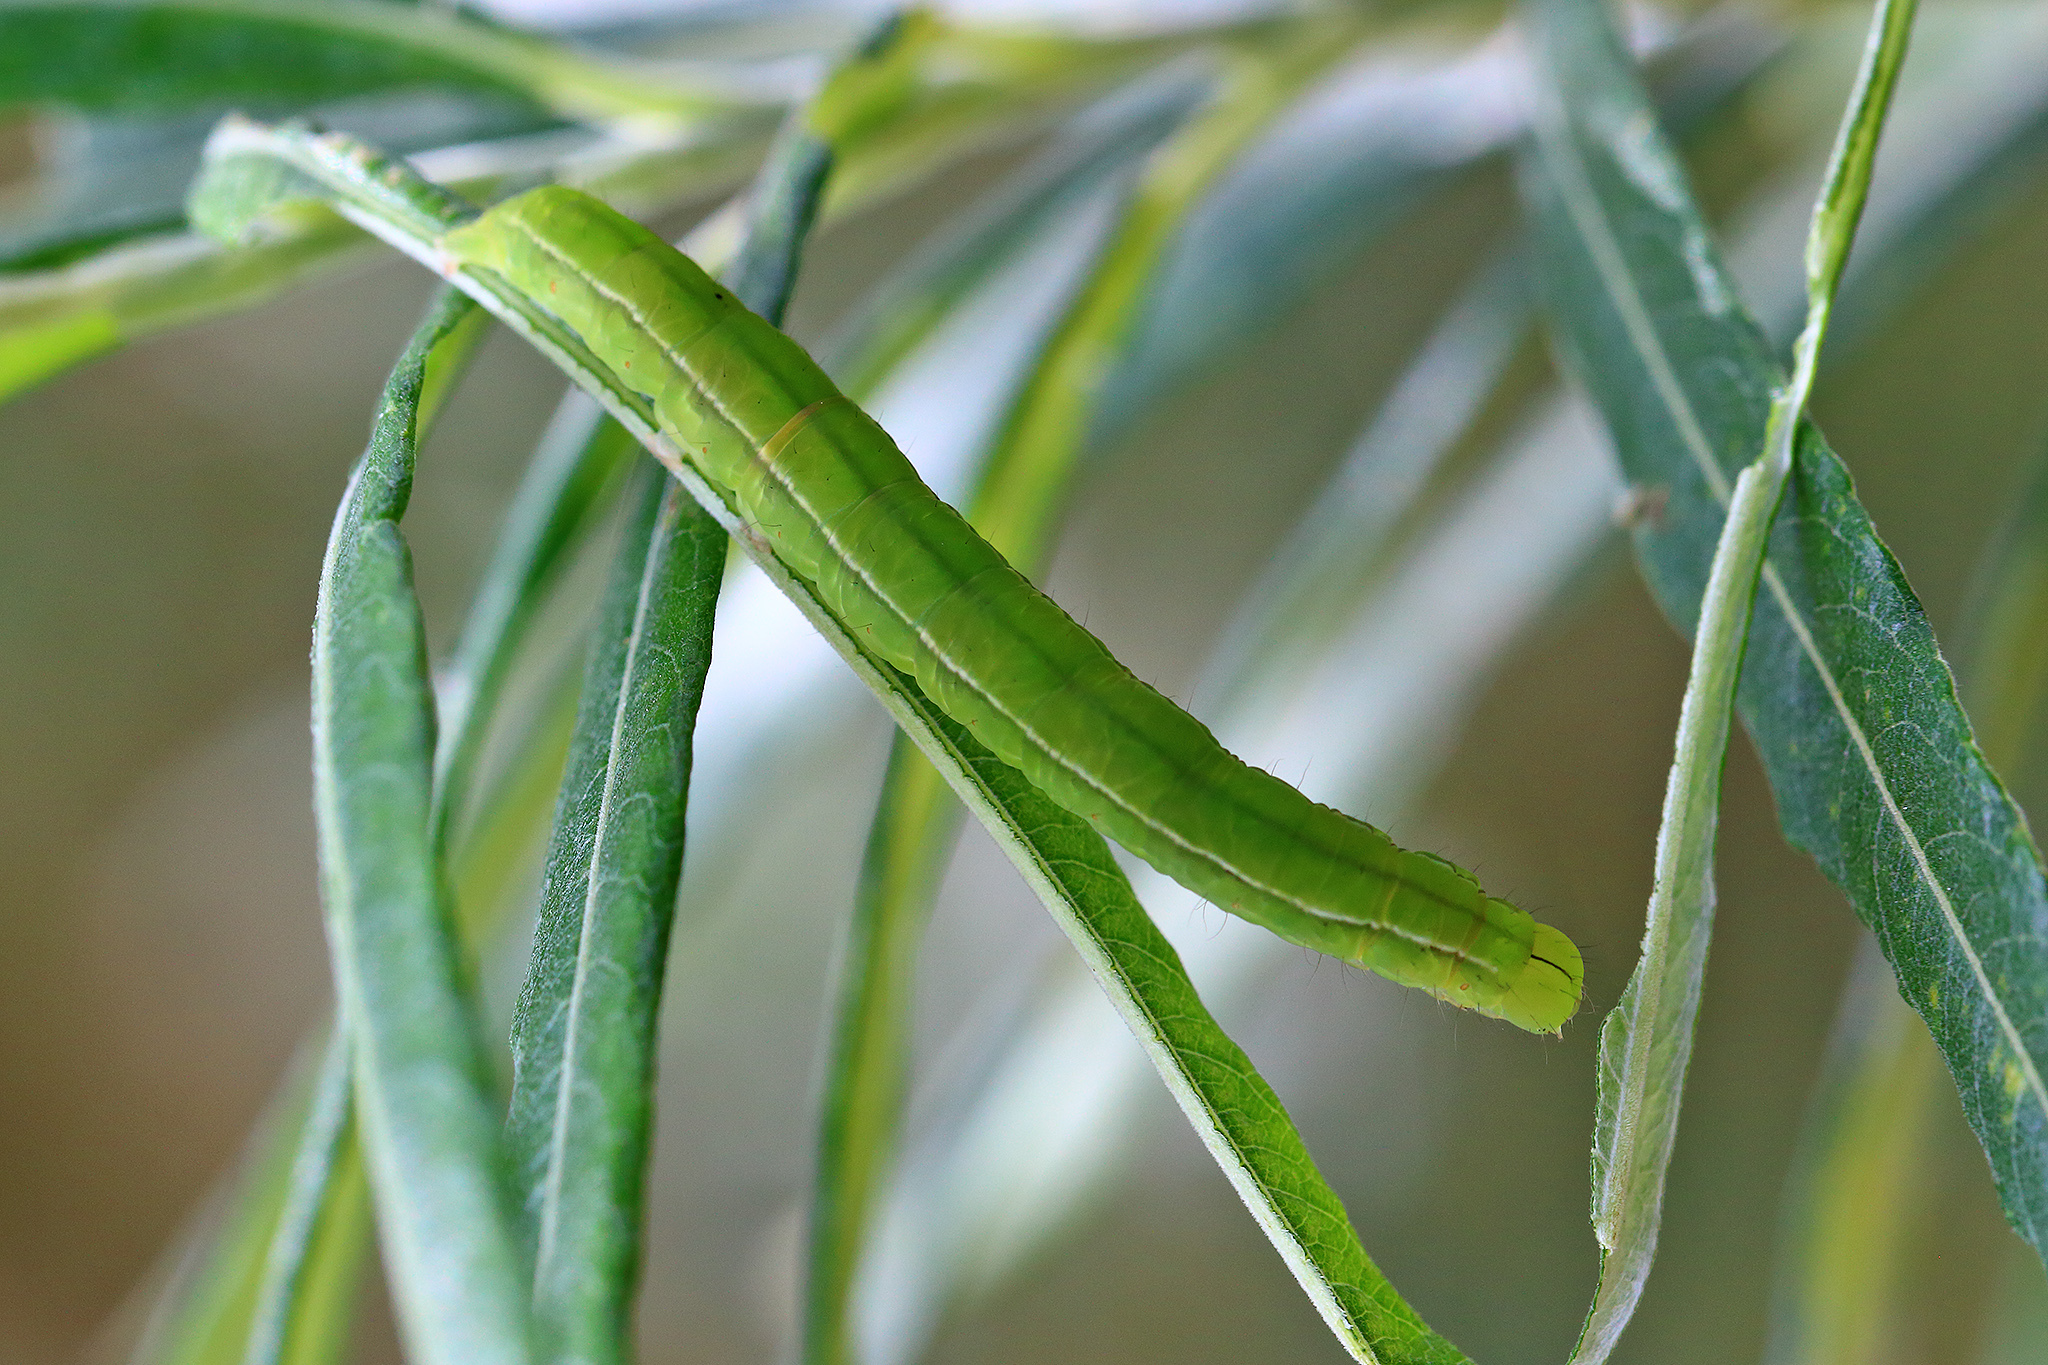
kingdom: Animalia
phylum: Arthropoda
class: Insecta
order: Lepidoptera
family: Erebidae
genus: Scoliopteryx
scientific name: Scoliopteryx libatrix
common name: Herald
